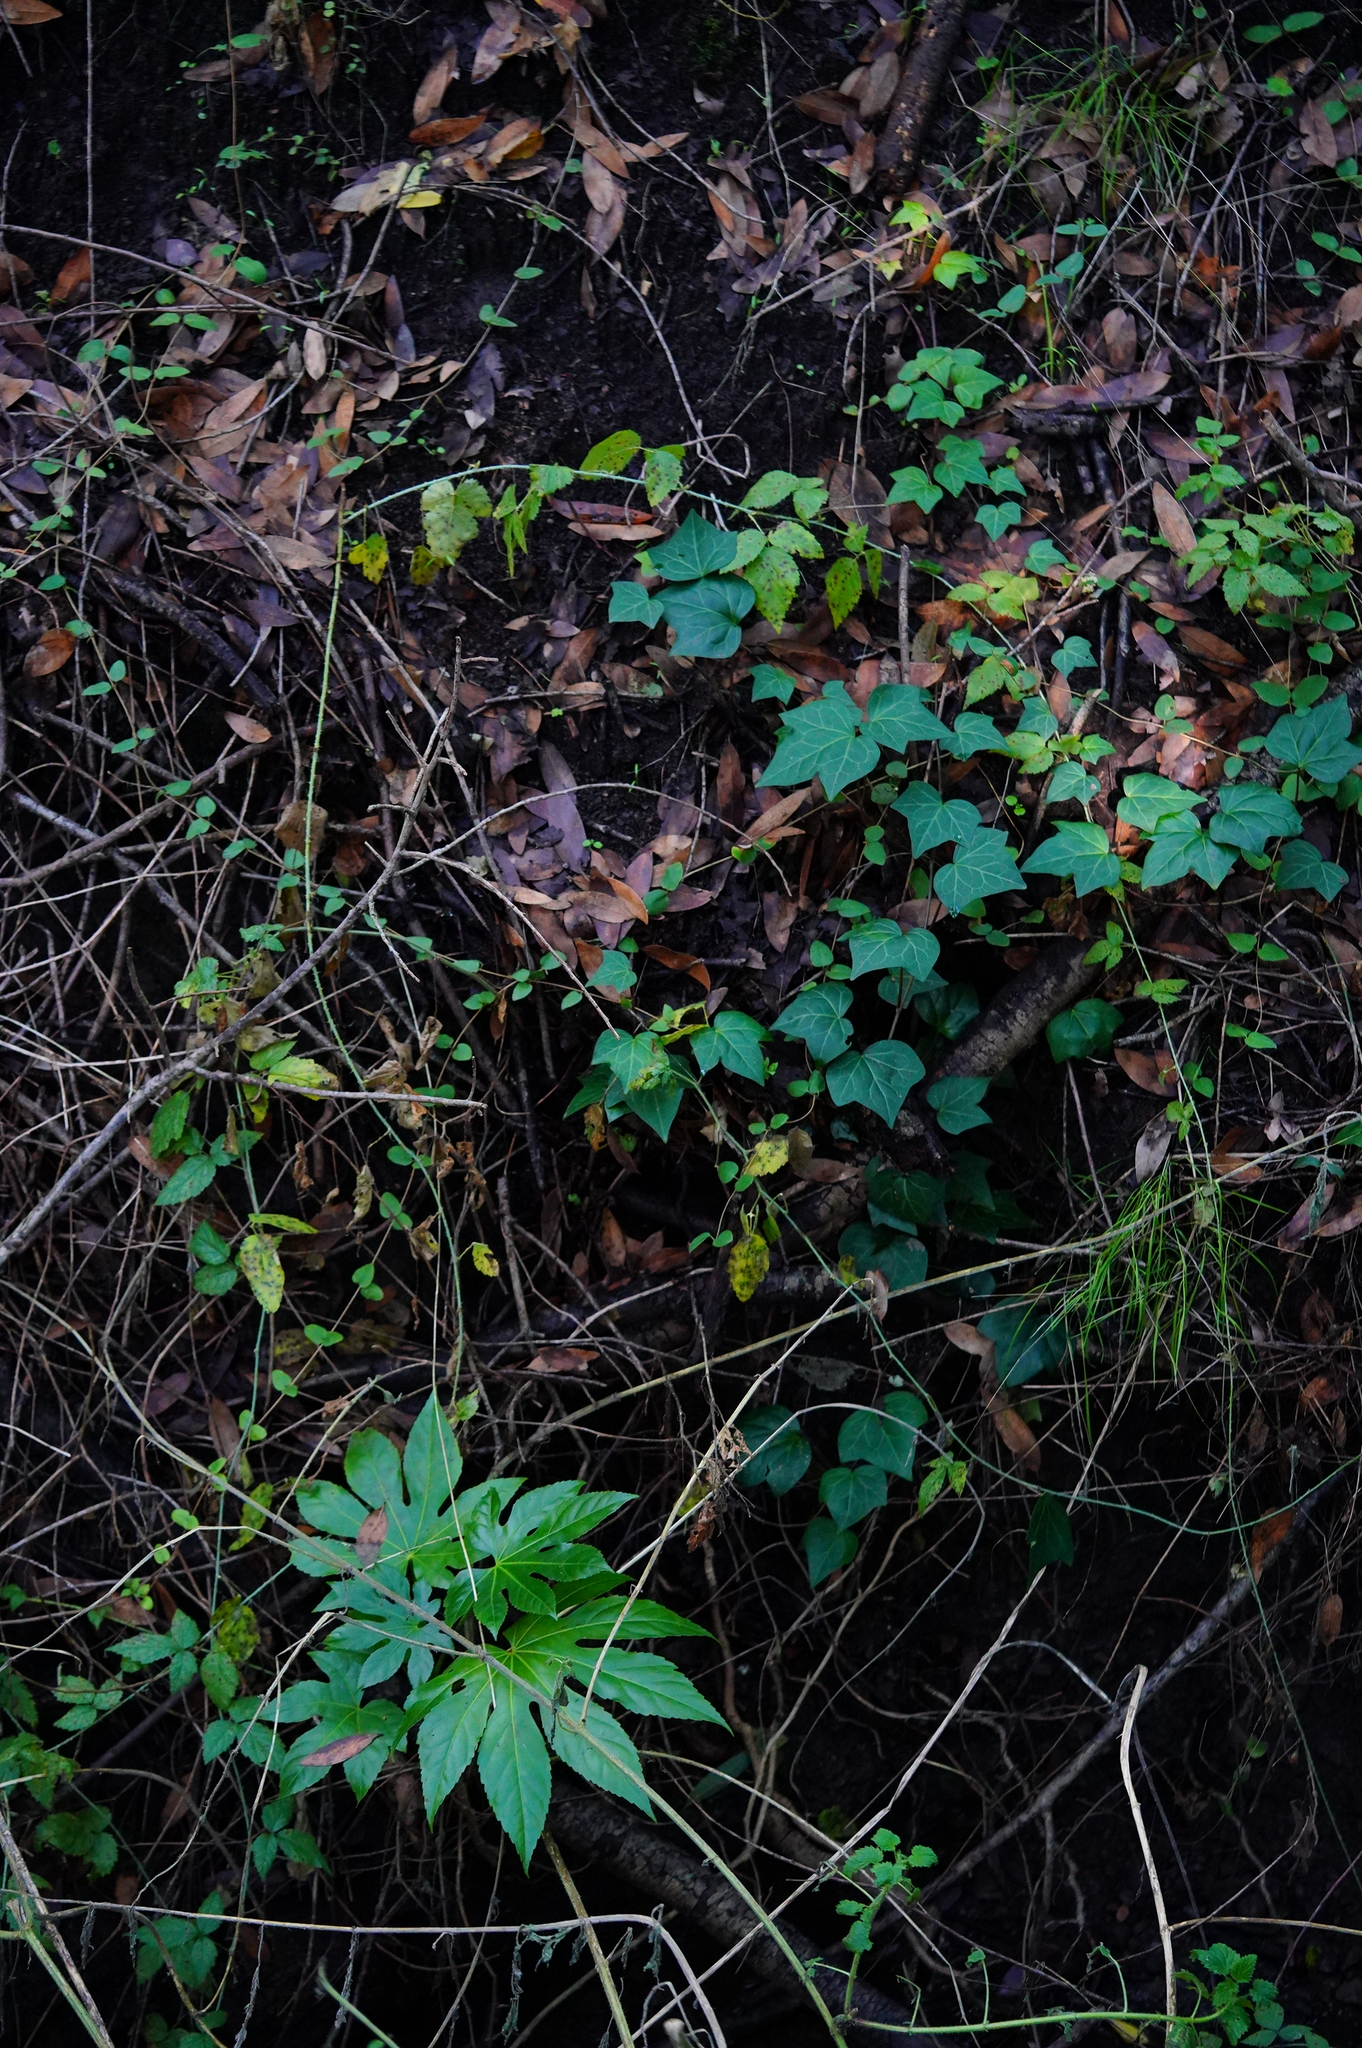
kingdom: Plantae
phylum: Tracheophyta
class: Magnoliopsida
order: Apiales
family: Araliaceae
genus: Hedera
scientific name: Hedera helix
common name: Ivy
